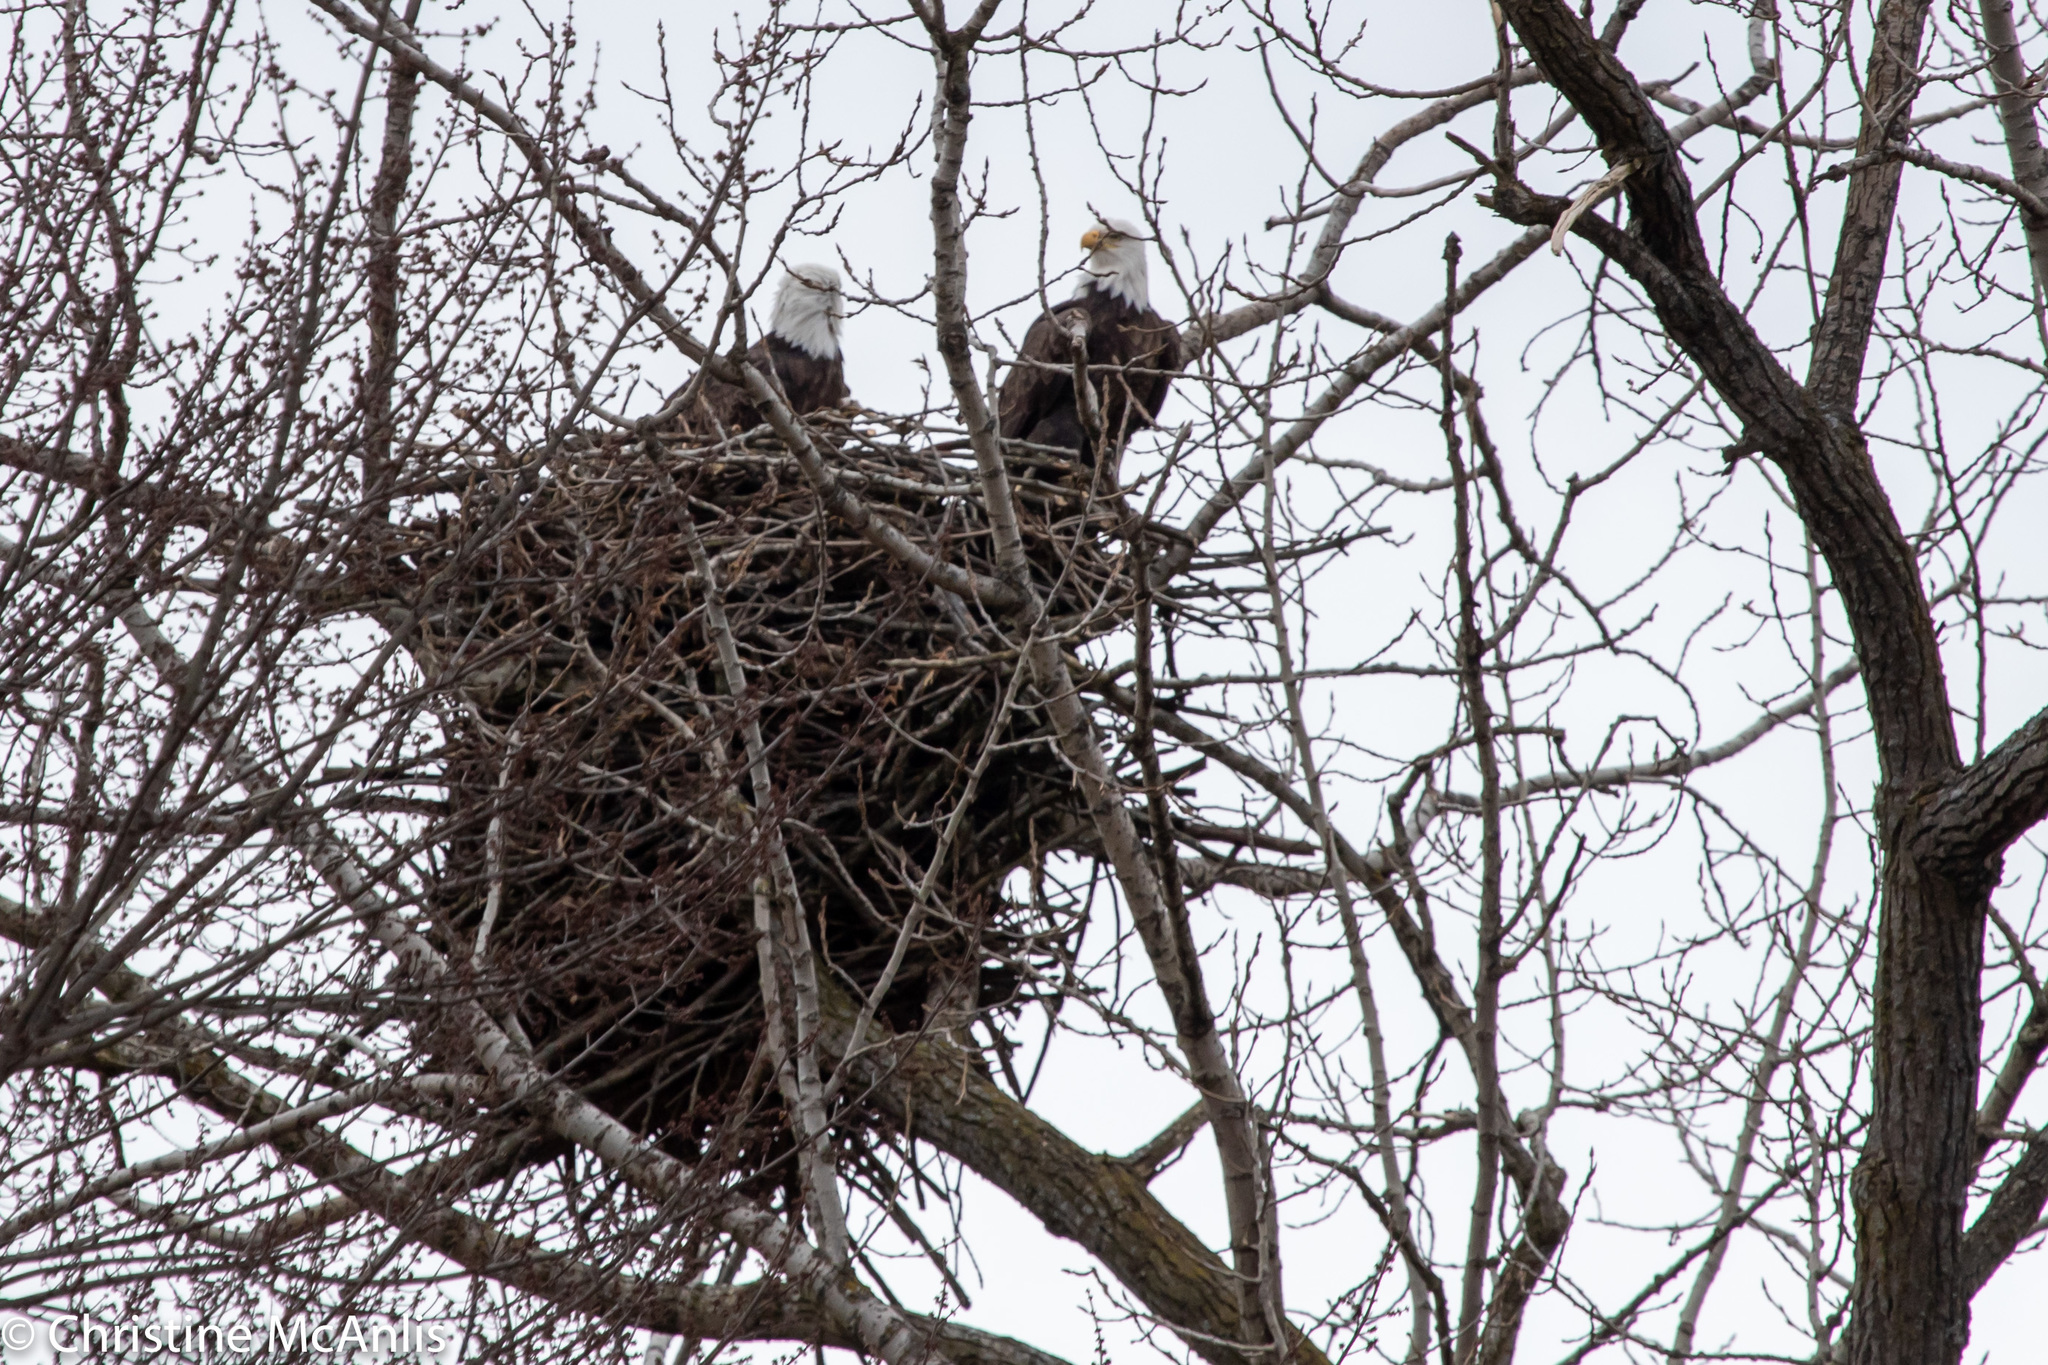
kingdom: Animalia
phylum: Chordata
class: Aves
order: Accipitriformes
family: Accipitridae
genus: Haliaeetus
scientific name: Haliaeetus leucocephalus
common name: Bald eagle
